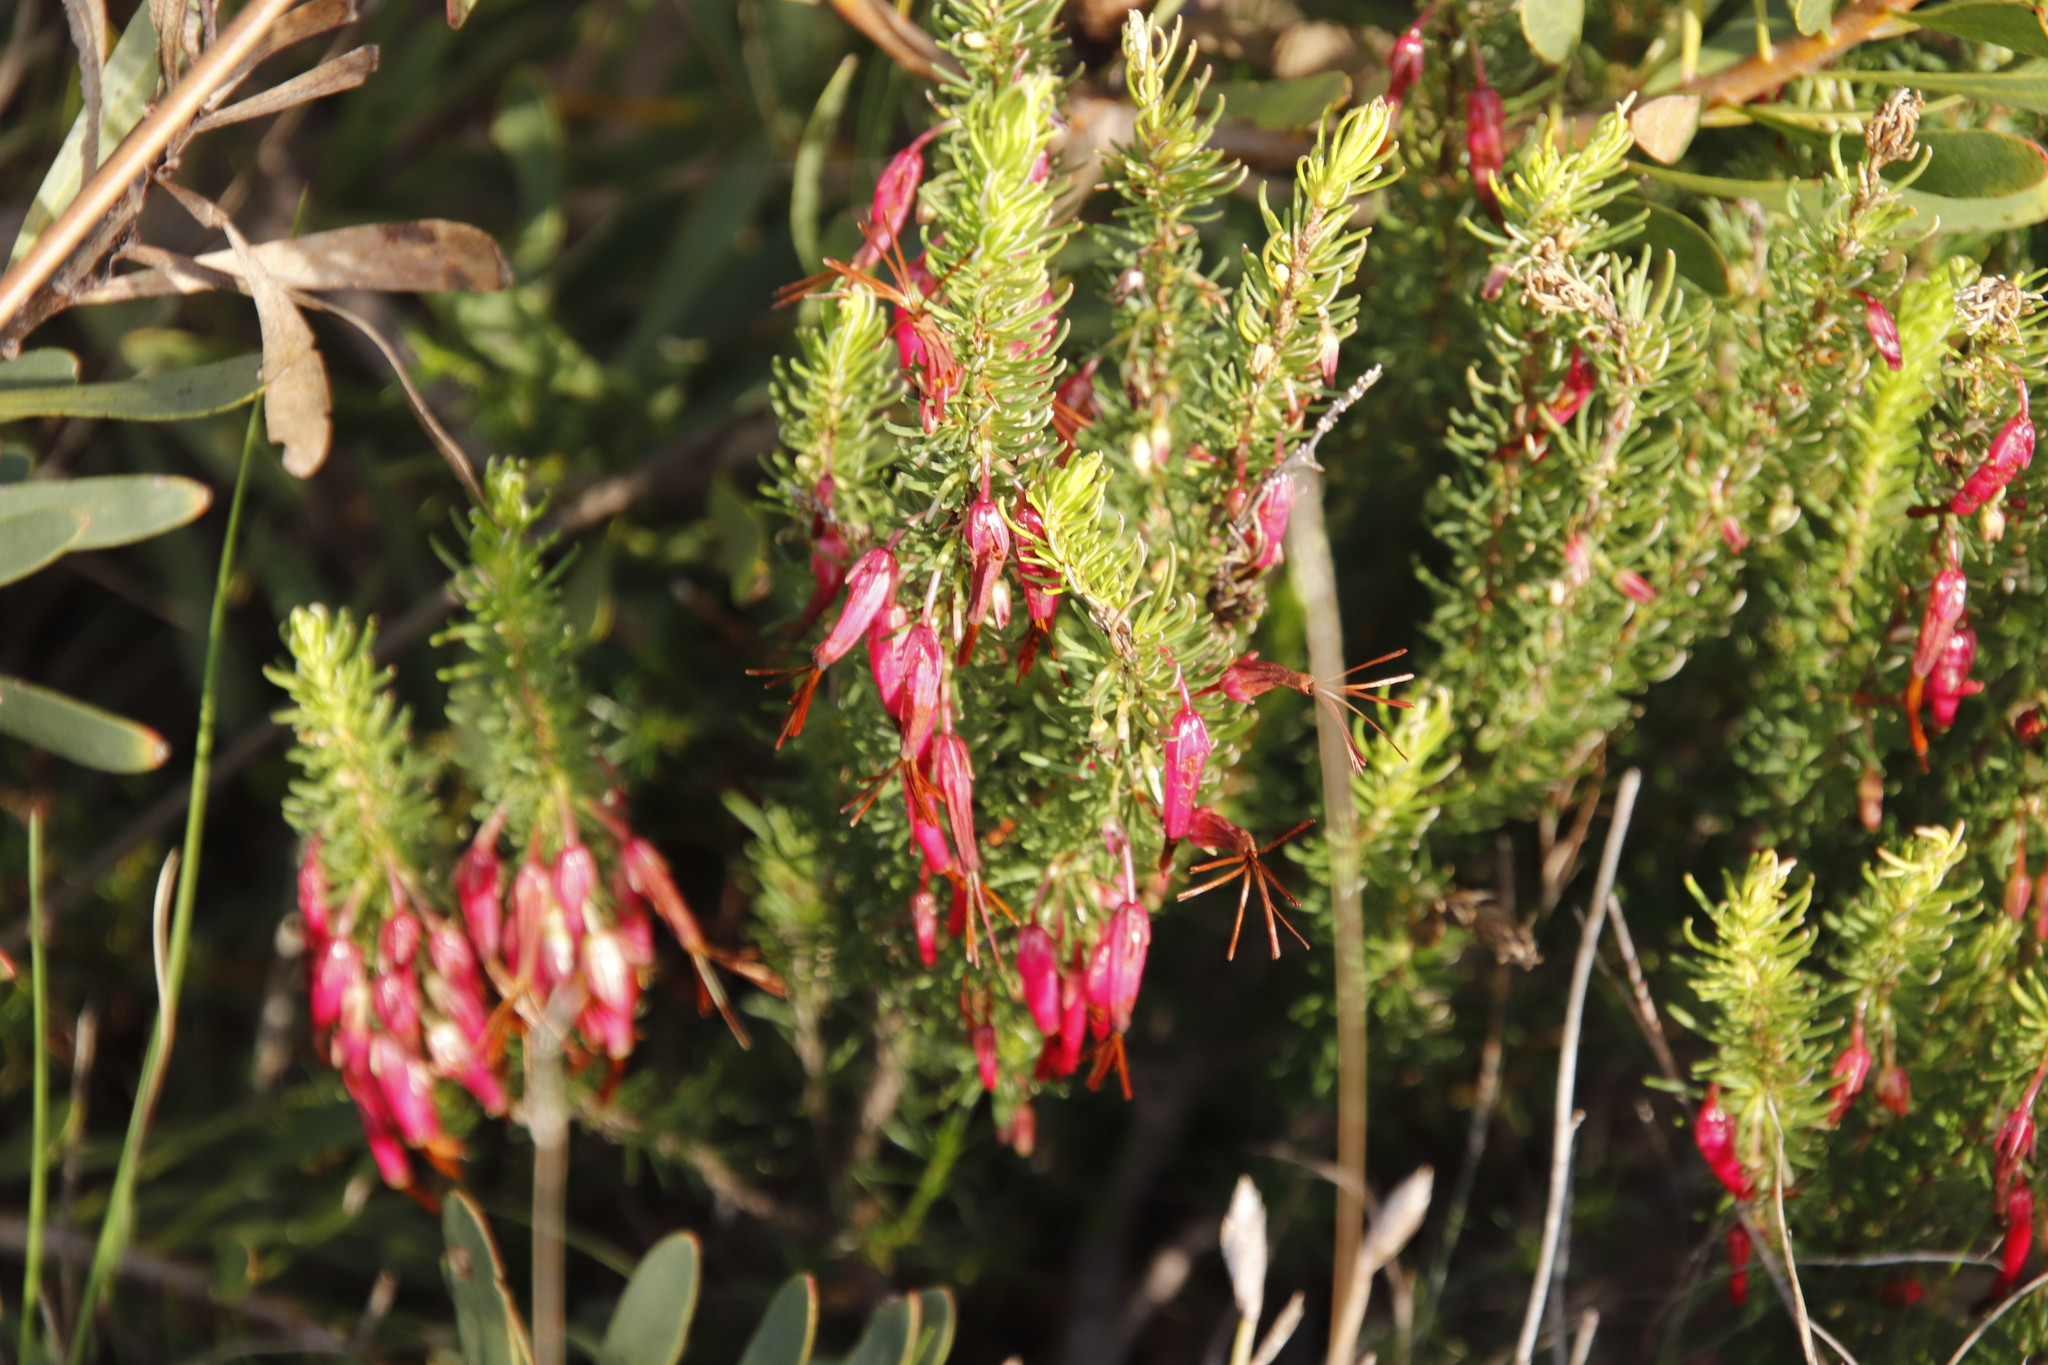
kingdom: Plantae
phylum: Tracheophyta
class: Magnoliopsida
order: Ericales
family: Ericaceae
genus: Erica
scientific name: Erica plukenetii
